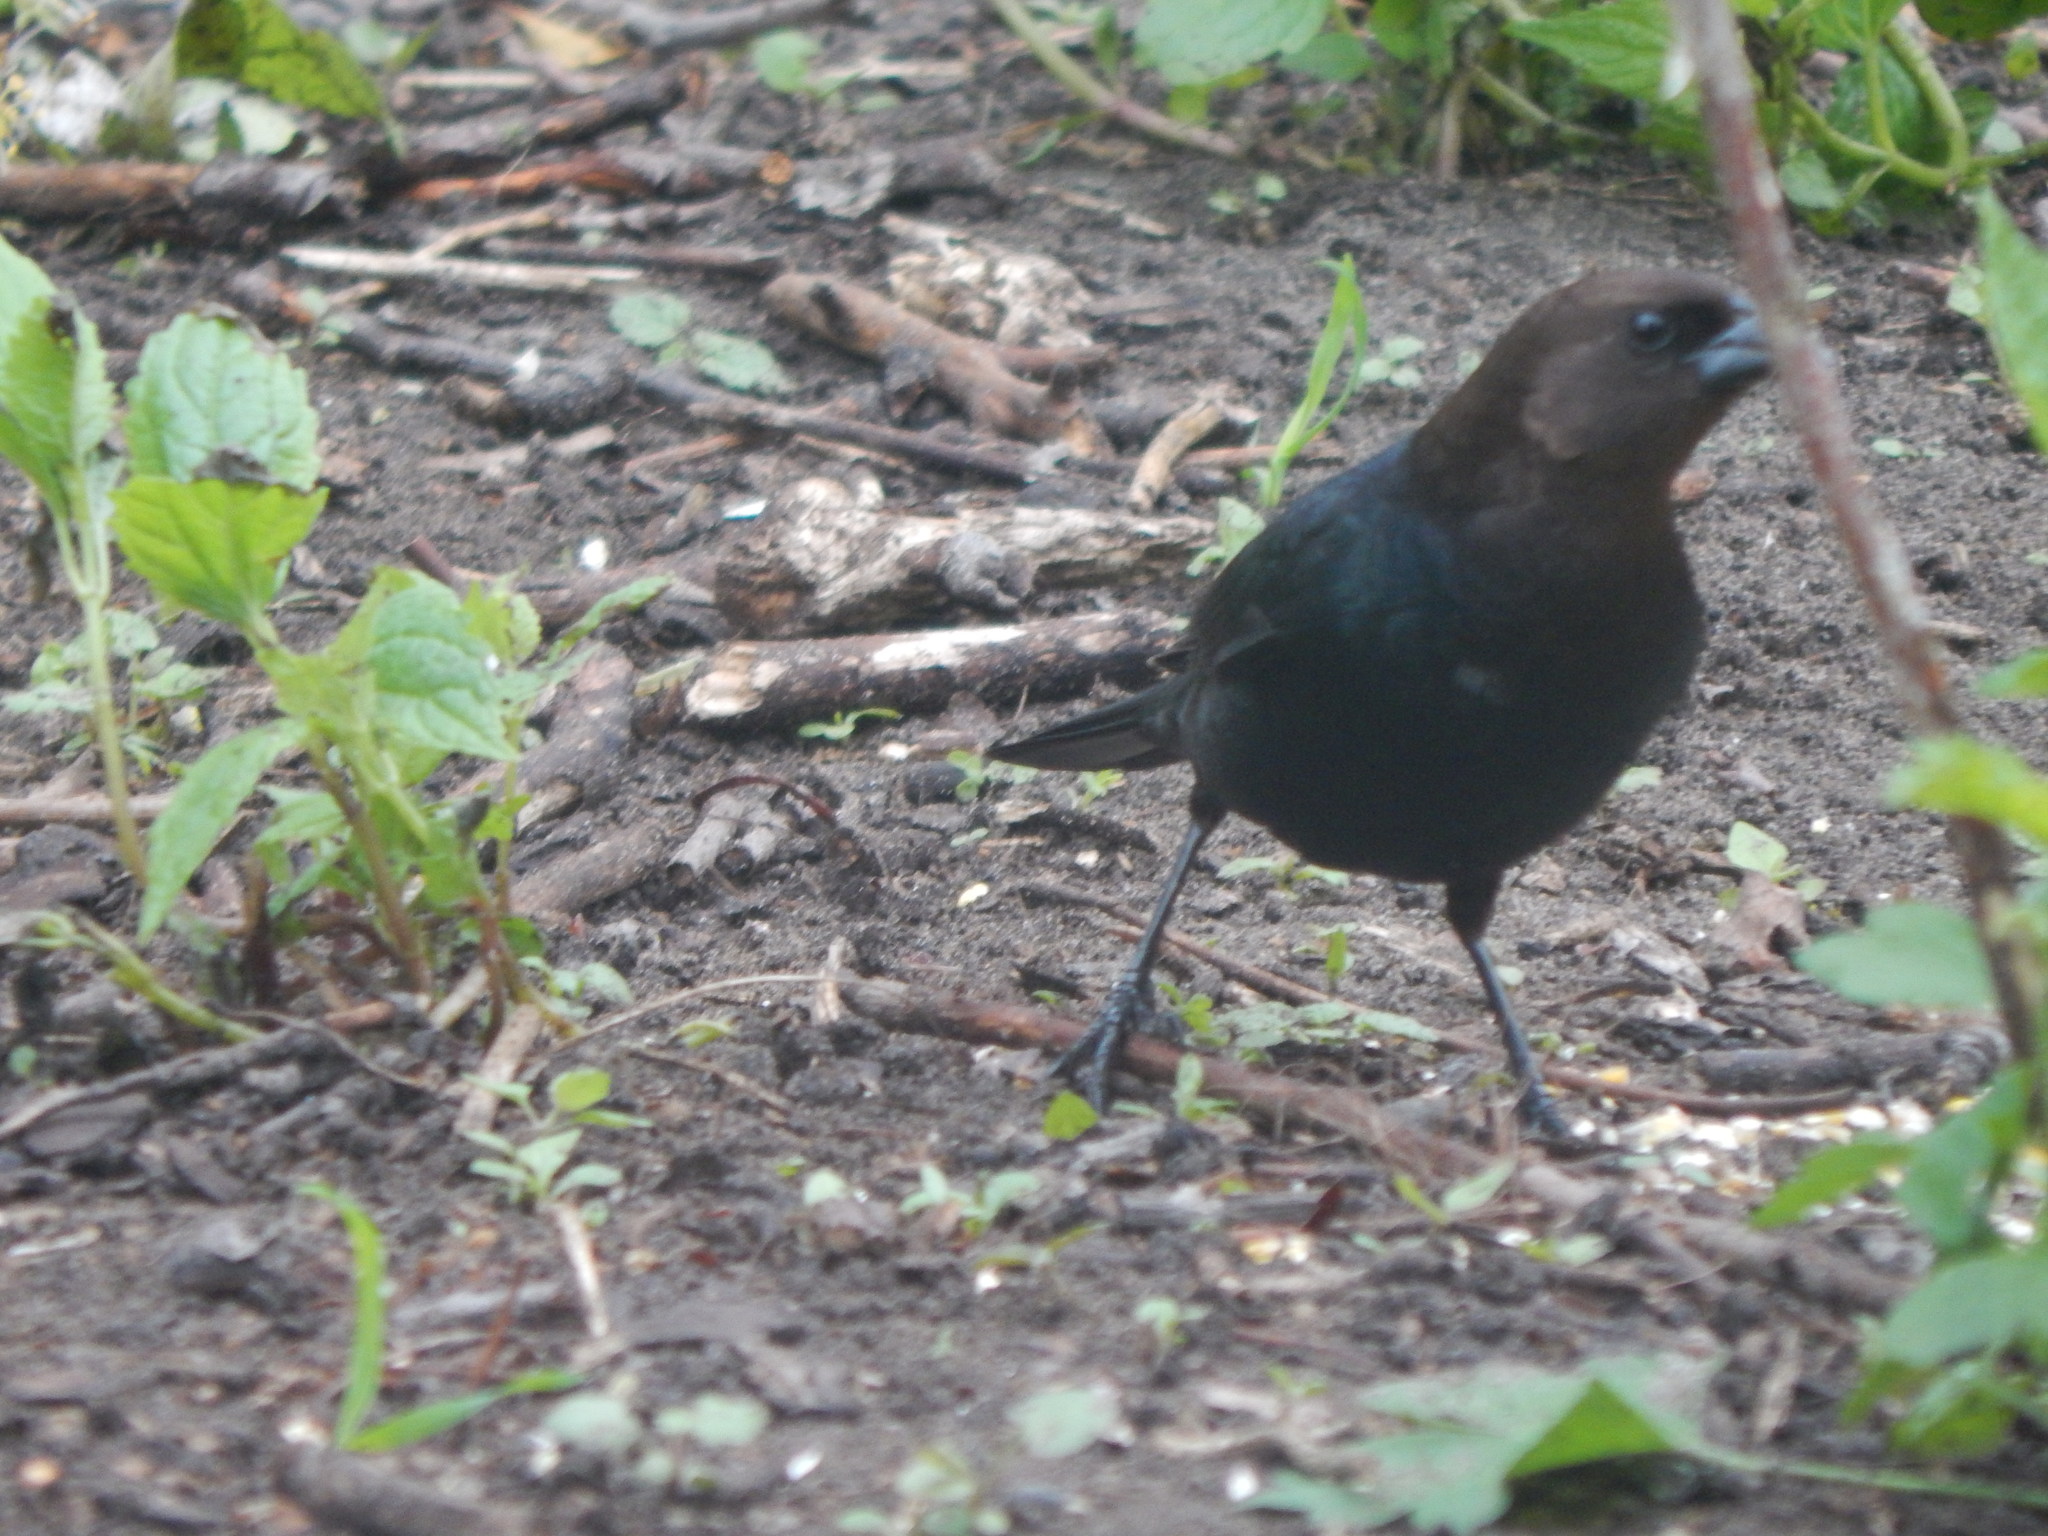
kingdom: Animalia
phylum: Chordata
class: Aves
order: Passeriformes
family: Icteridae
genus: Molothrus
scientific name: Molothrus ater
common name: Brown-headed cowbird
